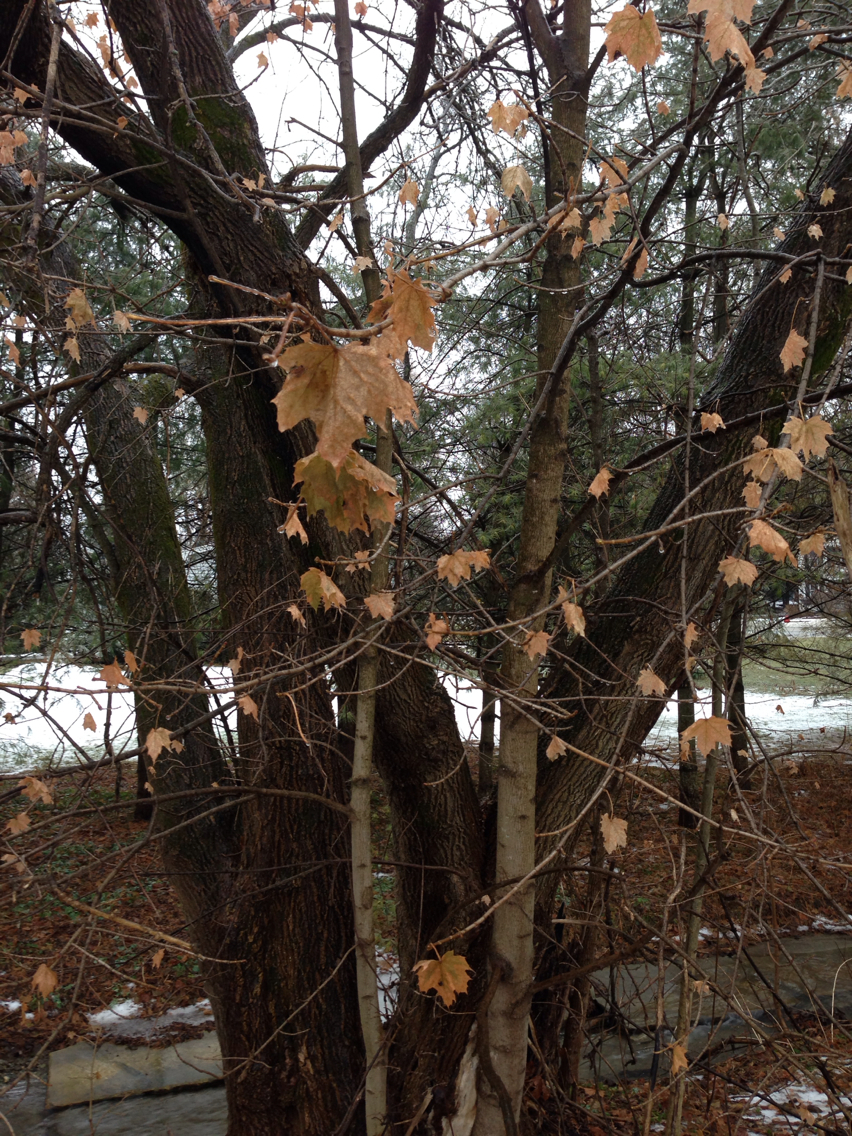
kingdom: Plantae
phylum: Tracheophyta
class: Magnoliopsida
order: Sapindales
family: Sapindaceae
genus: Acer
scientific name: Acer platanoides
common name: Norway maple
